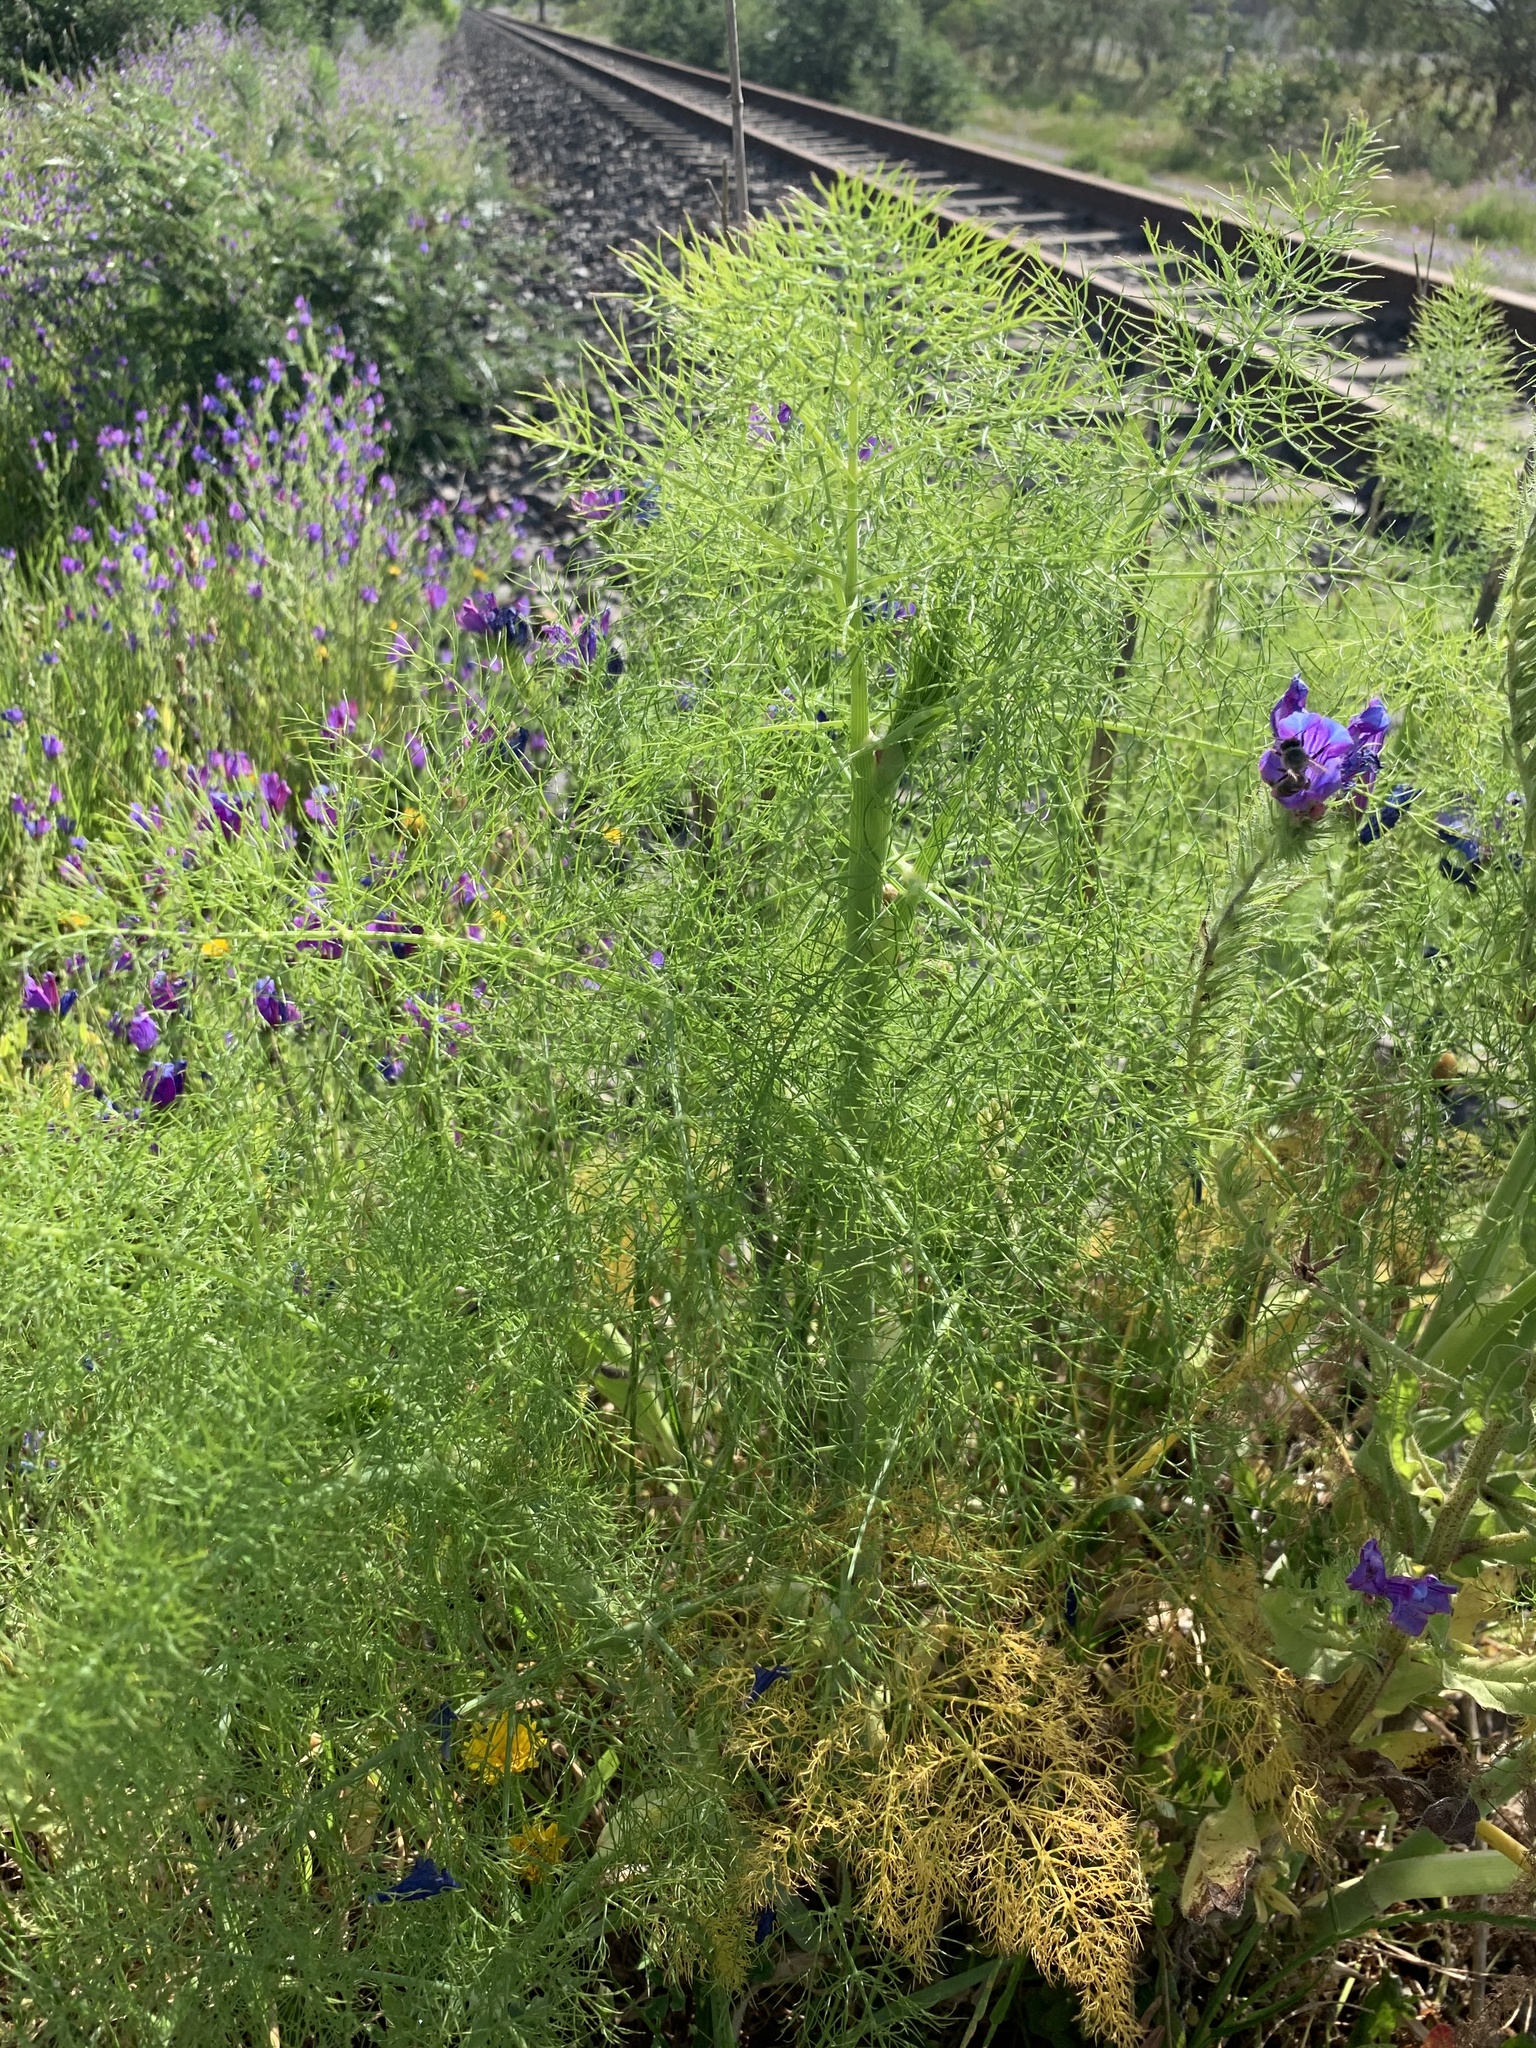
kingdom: Plantae
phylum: Tracheophyta
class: Magnoliopsida
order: Apiales
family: Apiaceae
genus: Foeniculum
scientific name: Foeniculum vulgare
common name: Fennel
